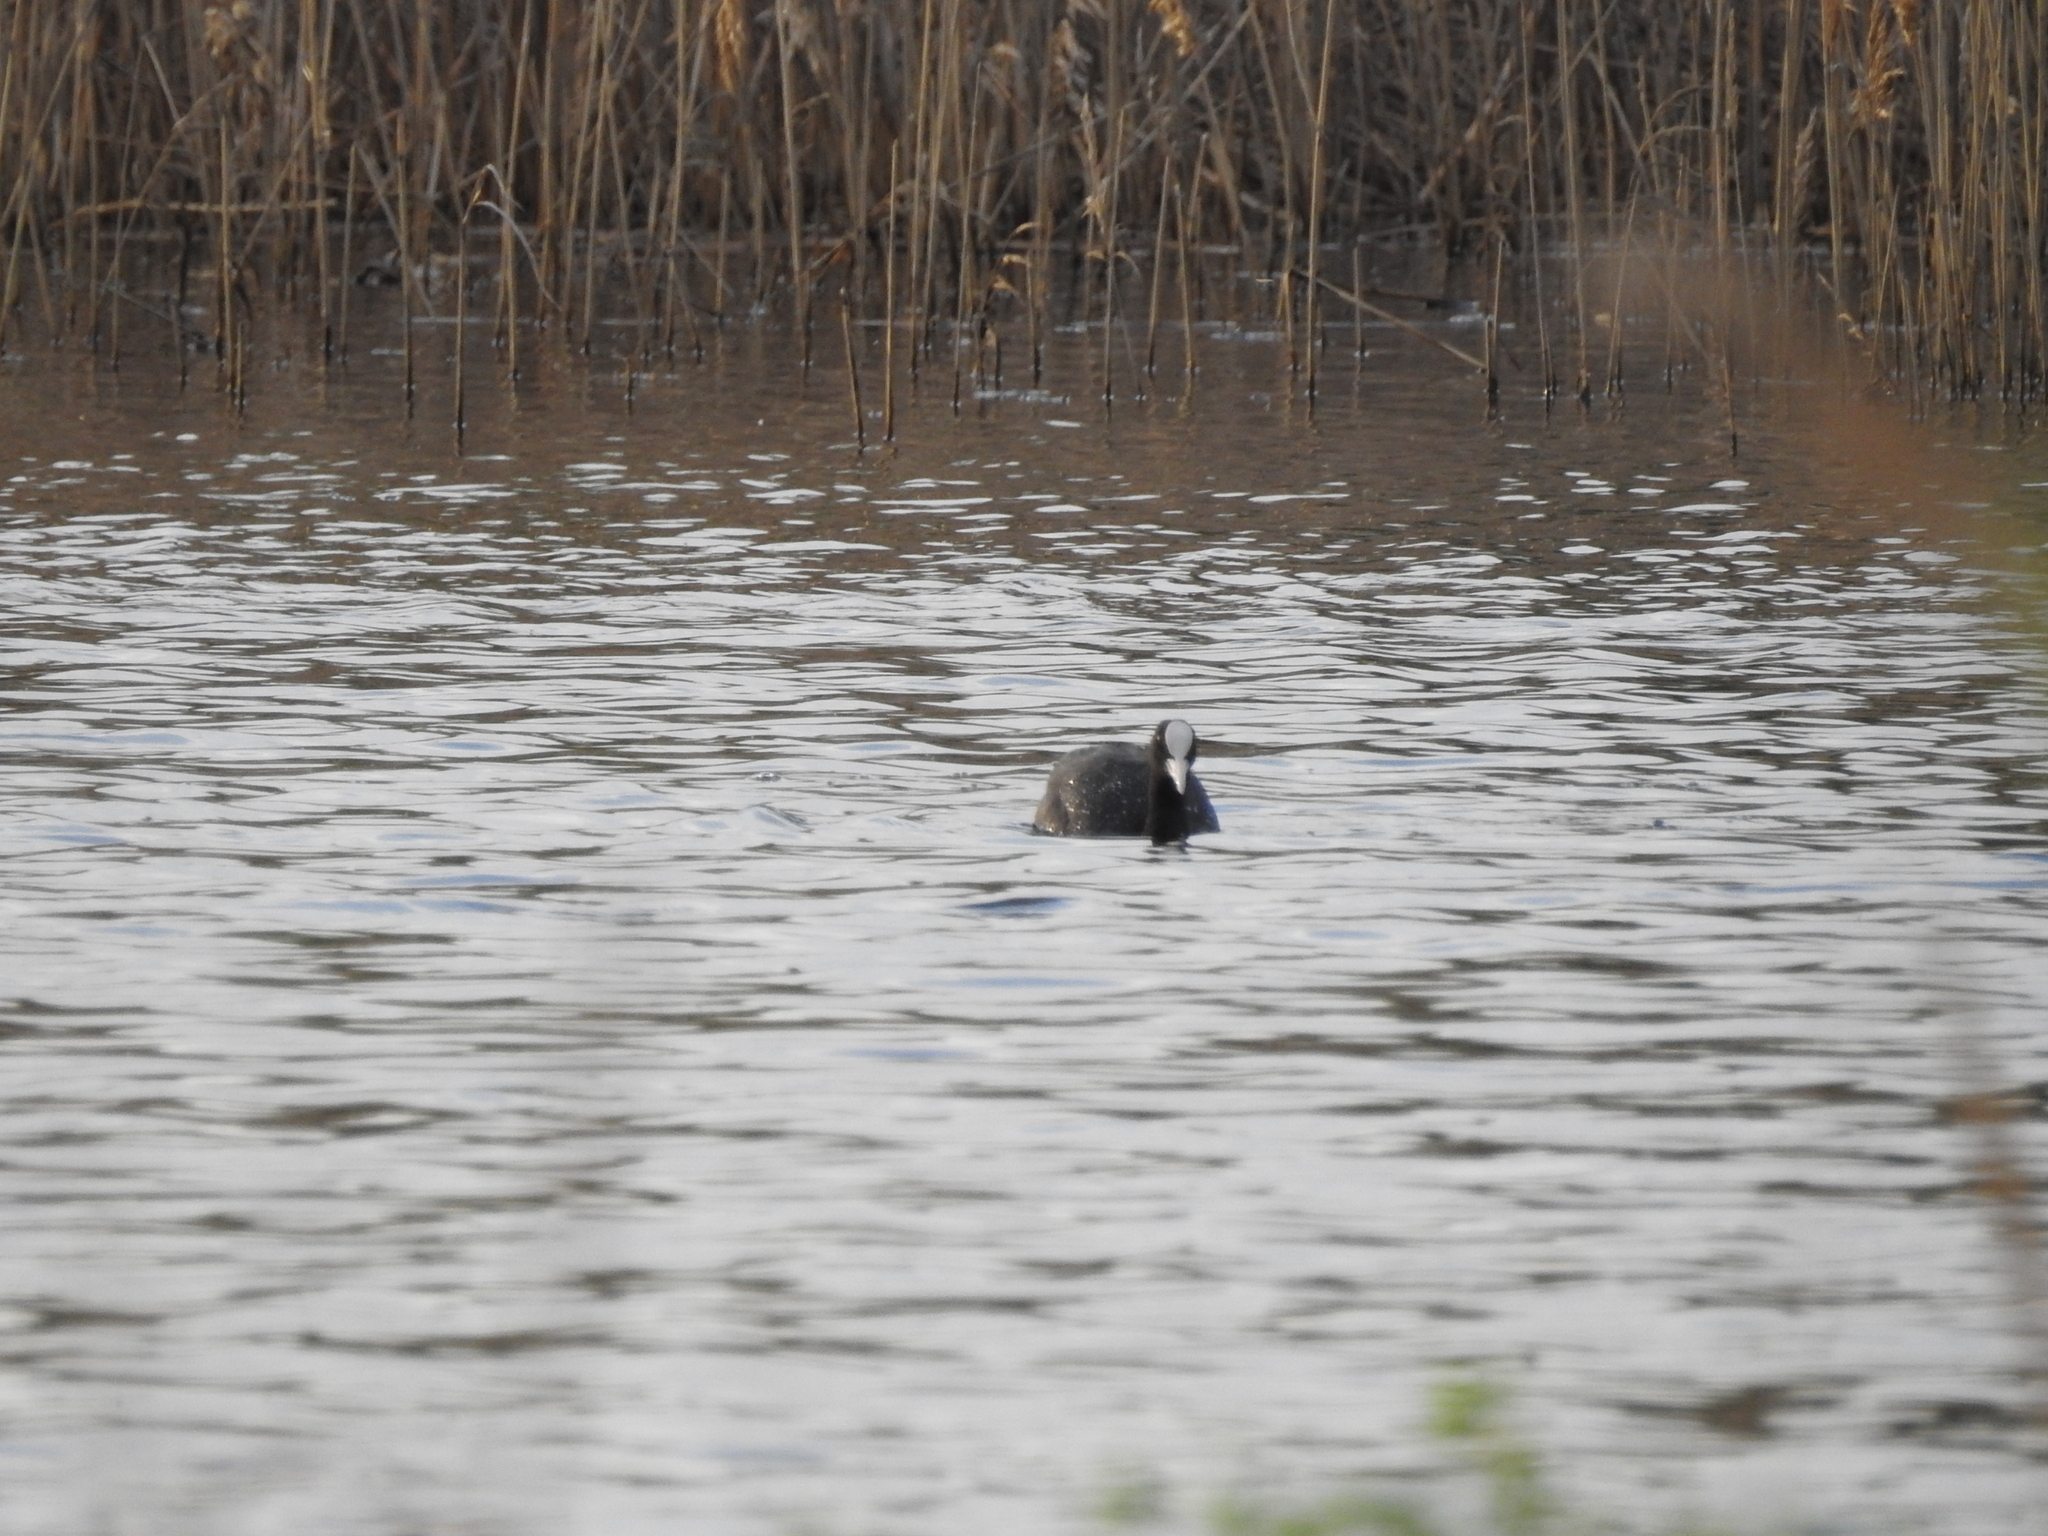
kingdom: Animalia
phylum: Chordata
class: Aves
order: Gruiformes
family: Rallidae
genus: Fulica
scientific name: Fulica atra
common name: Eurasian coot
